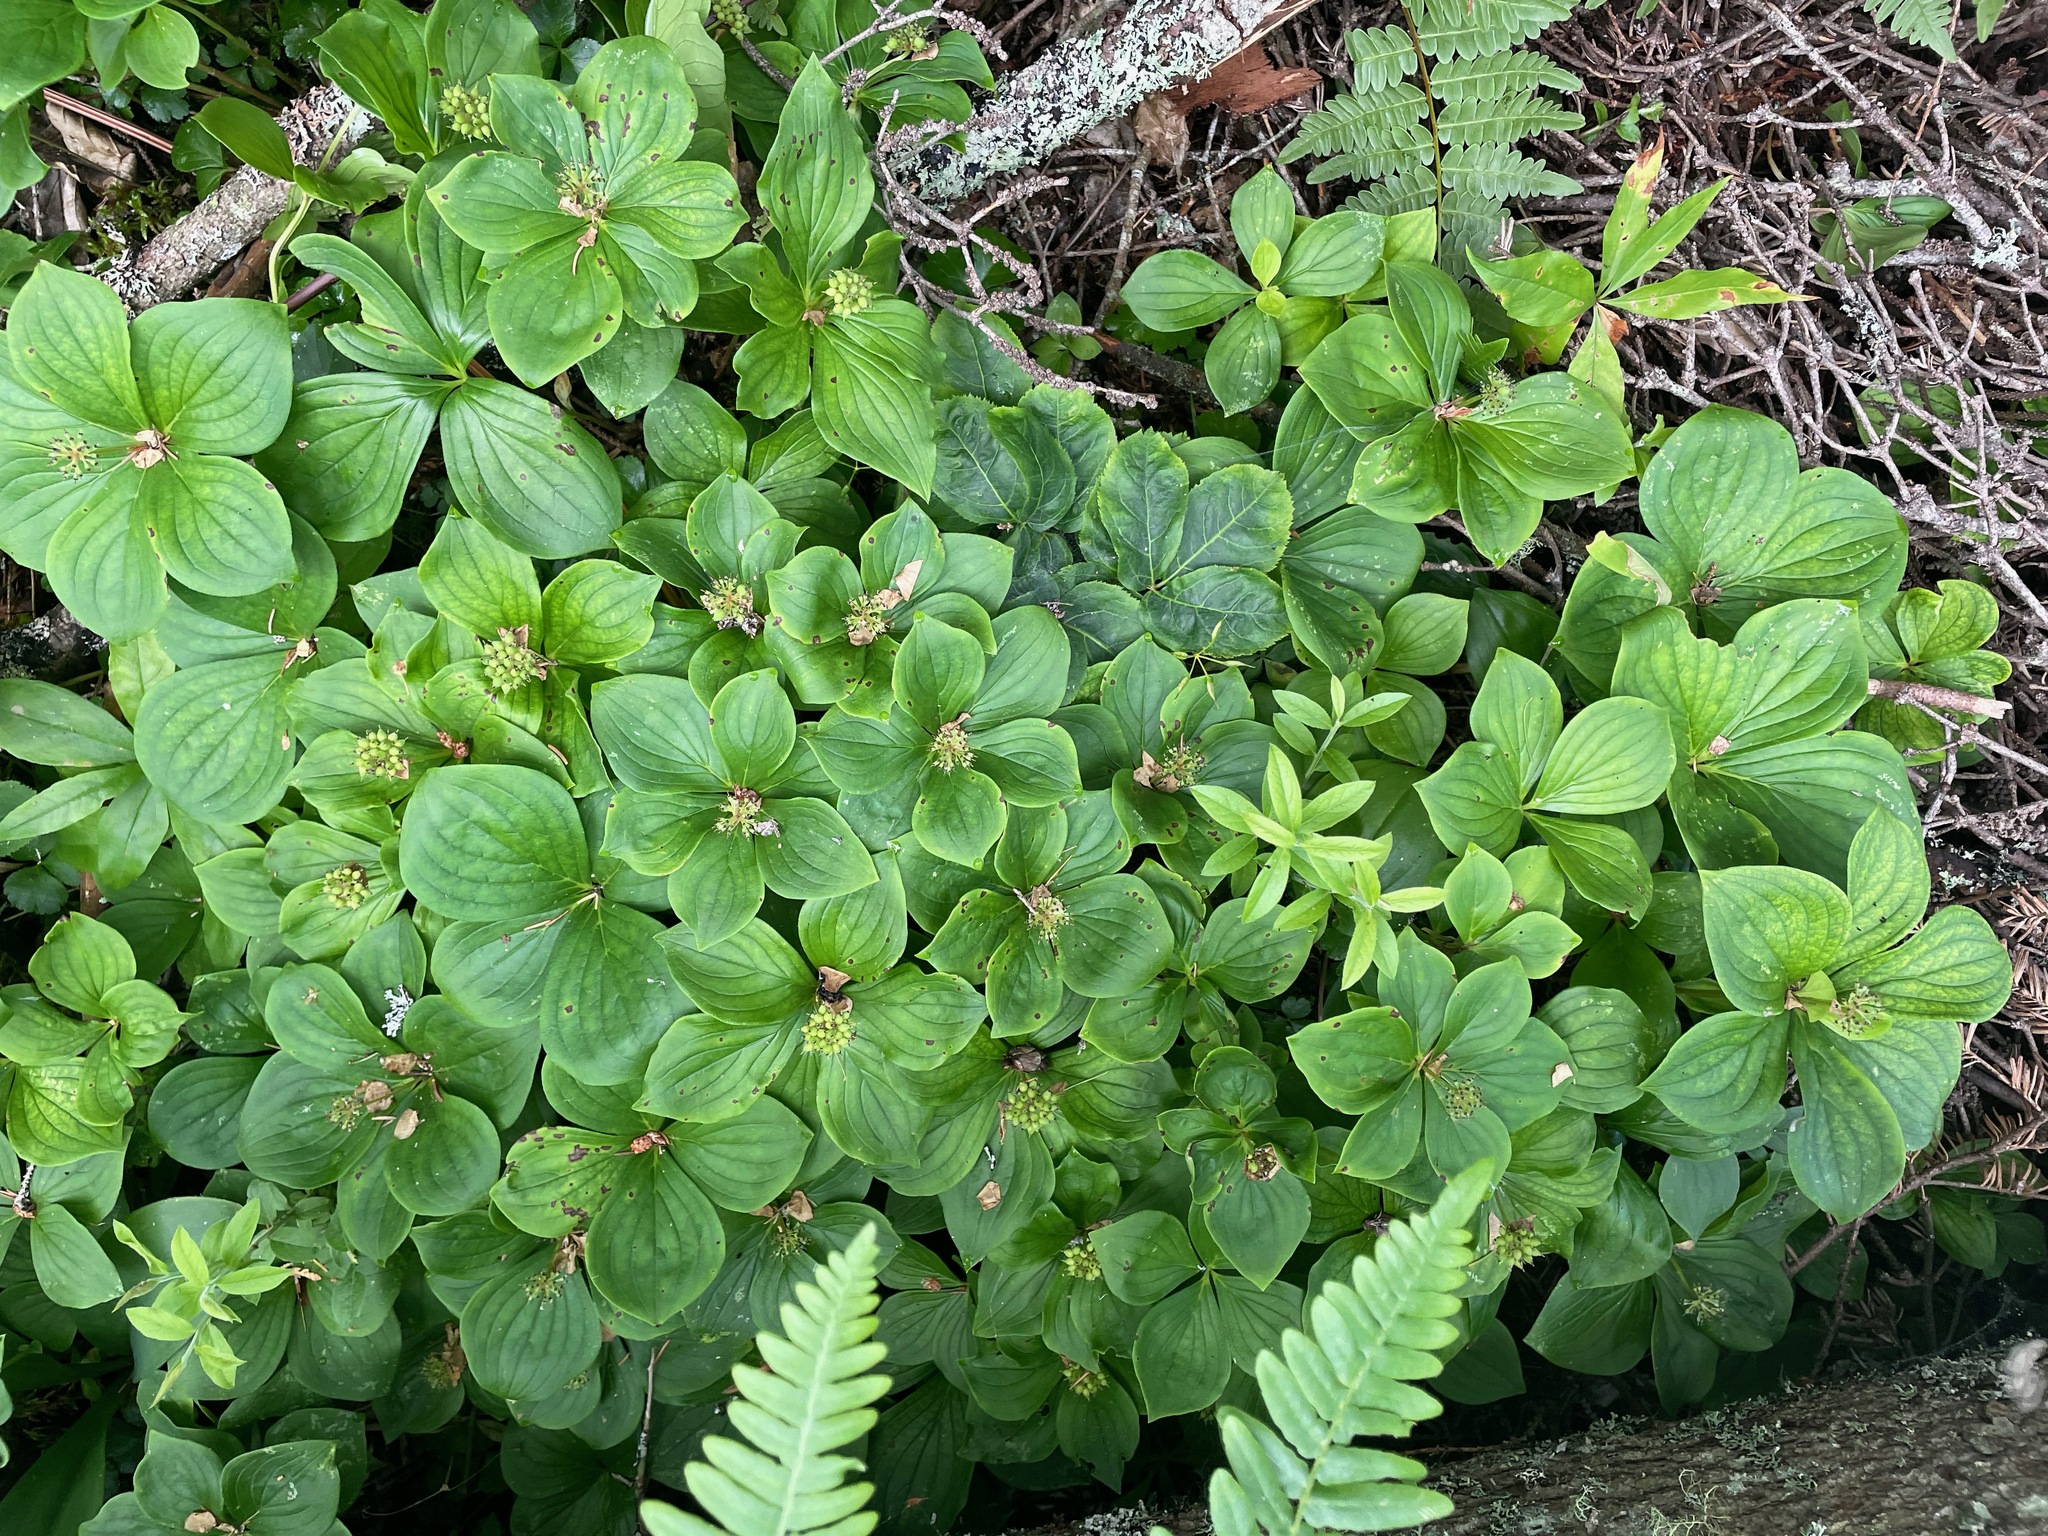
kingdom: Plantae
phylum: Tracheophyta
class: Magnoliopsida
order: Cornales
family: Cornaceae
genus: Cornus
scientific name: Cornus canadensis
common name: Creeping dogwood
